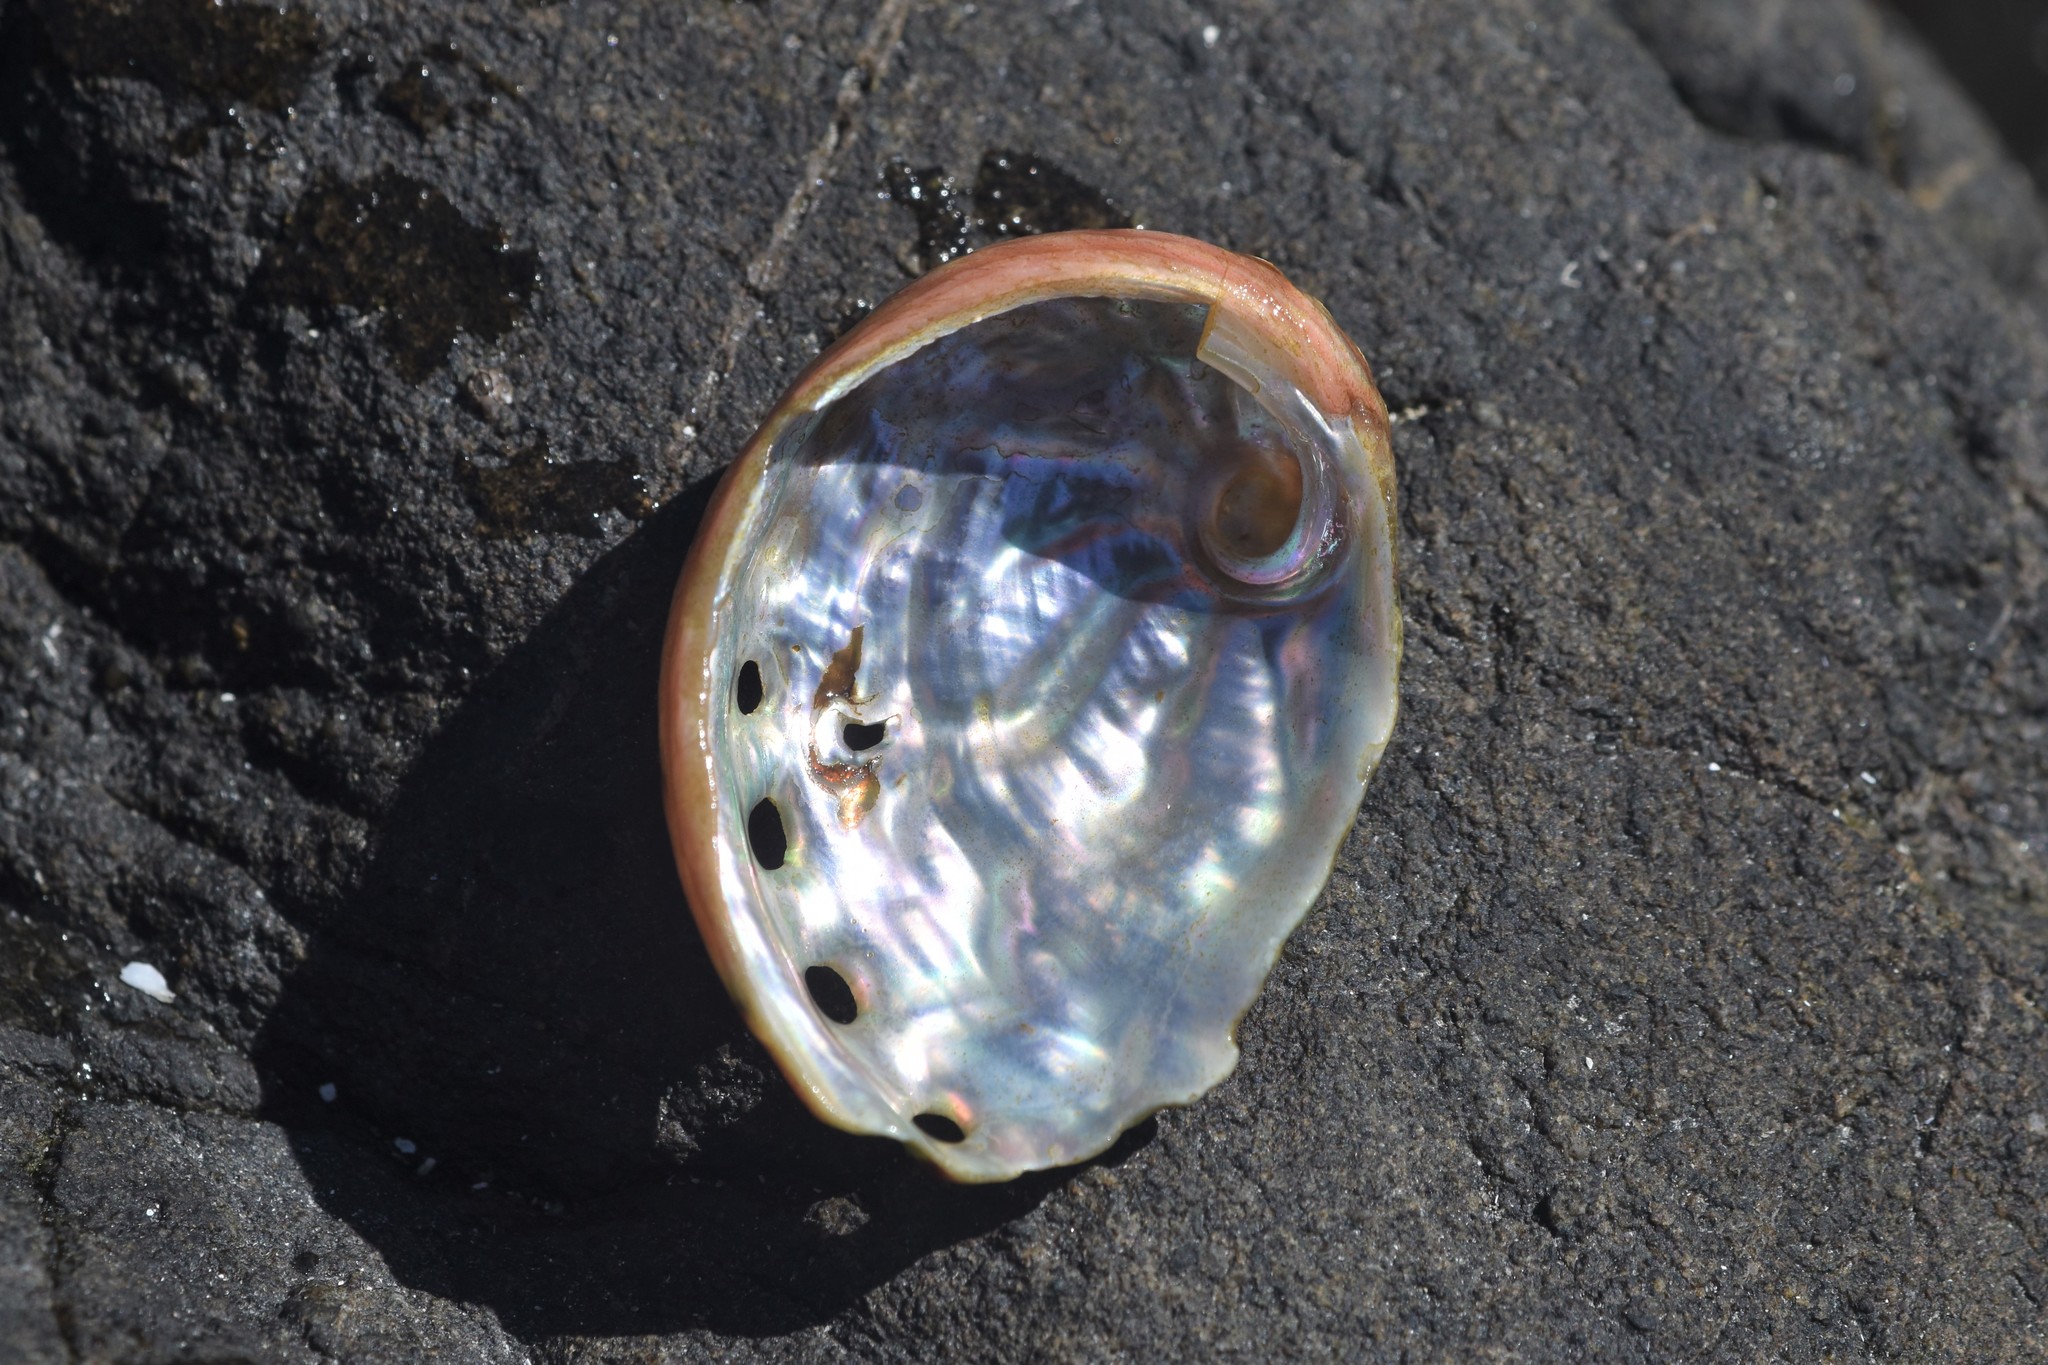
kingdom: Animalia
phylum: Mollusca
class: Gastropoda
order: Lepetellida
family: Haliotidae
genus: Haliotis
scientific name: Haliotis kamtschatkana
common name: Pinto abalone
